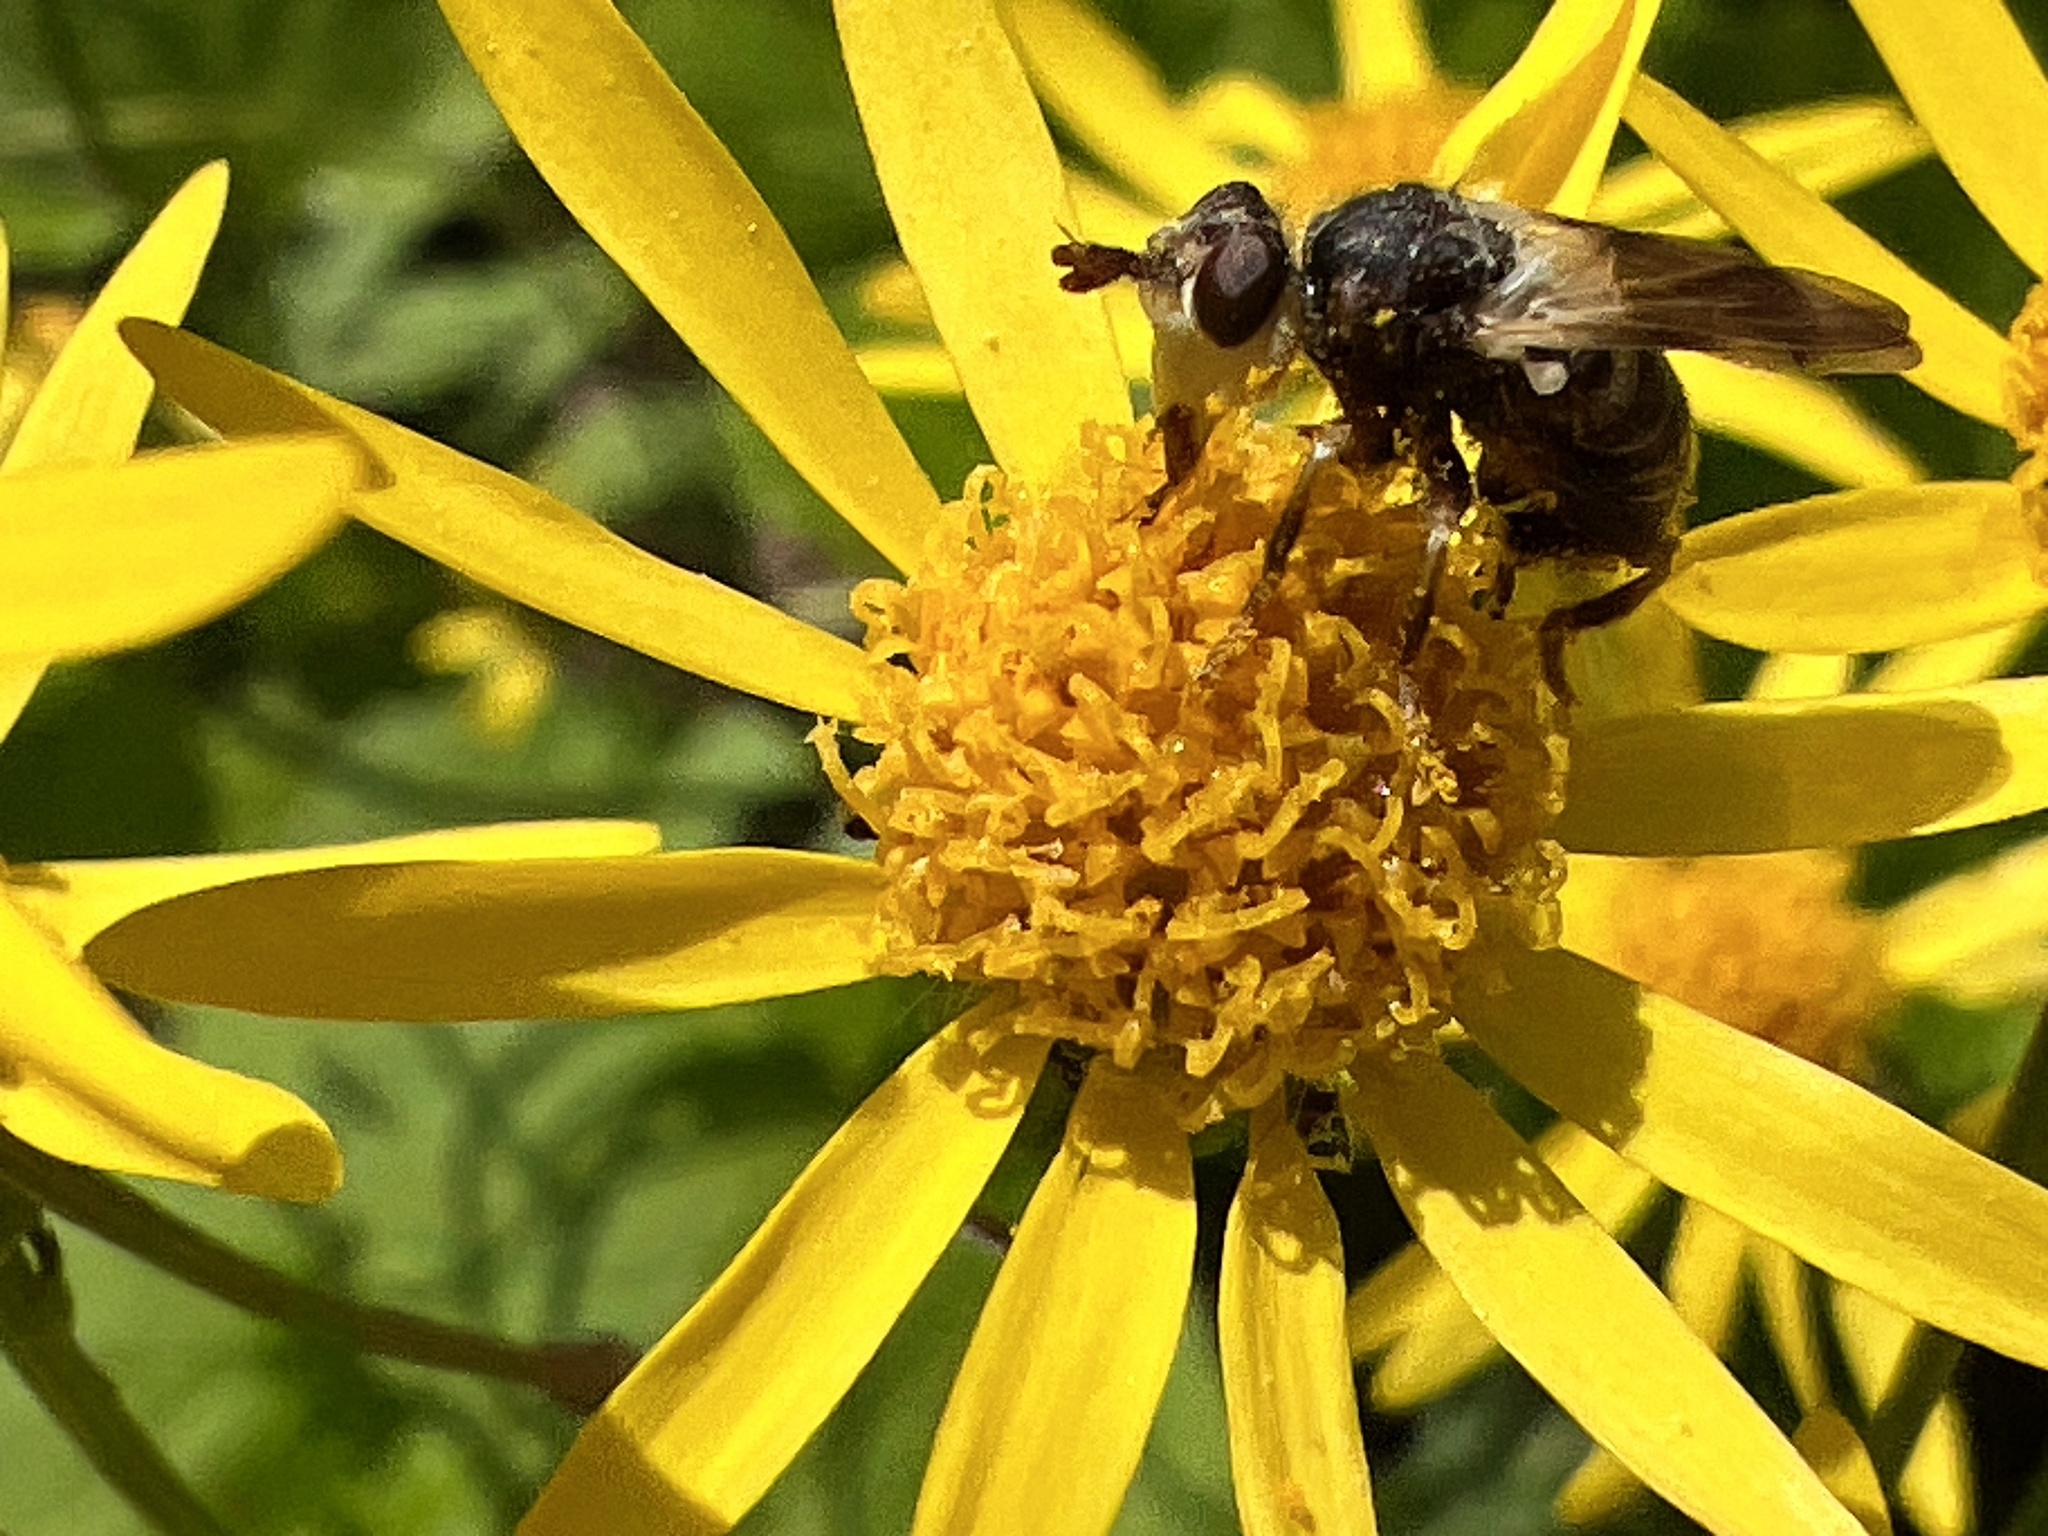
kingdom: Animalia
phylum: Arthropoda
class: Insecta
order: Diptera
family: Conopidae
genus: Myopa
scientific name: Myopa vesiculosa
